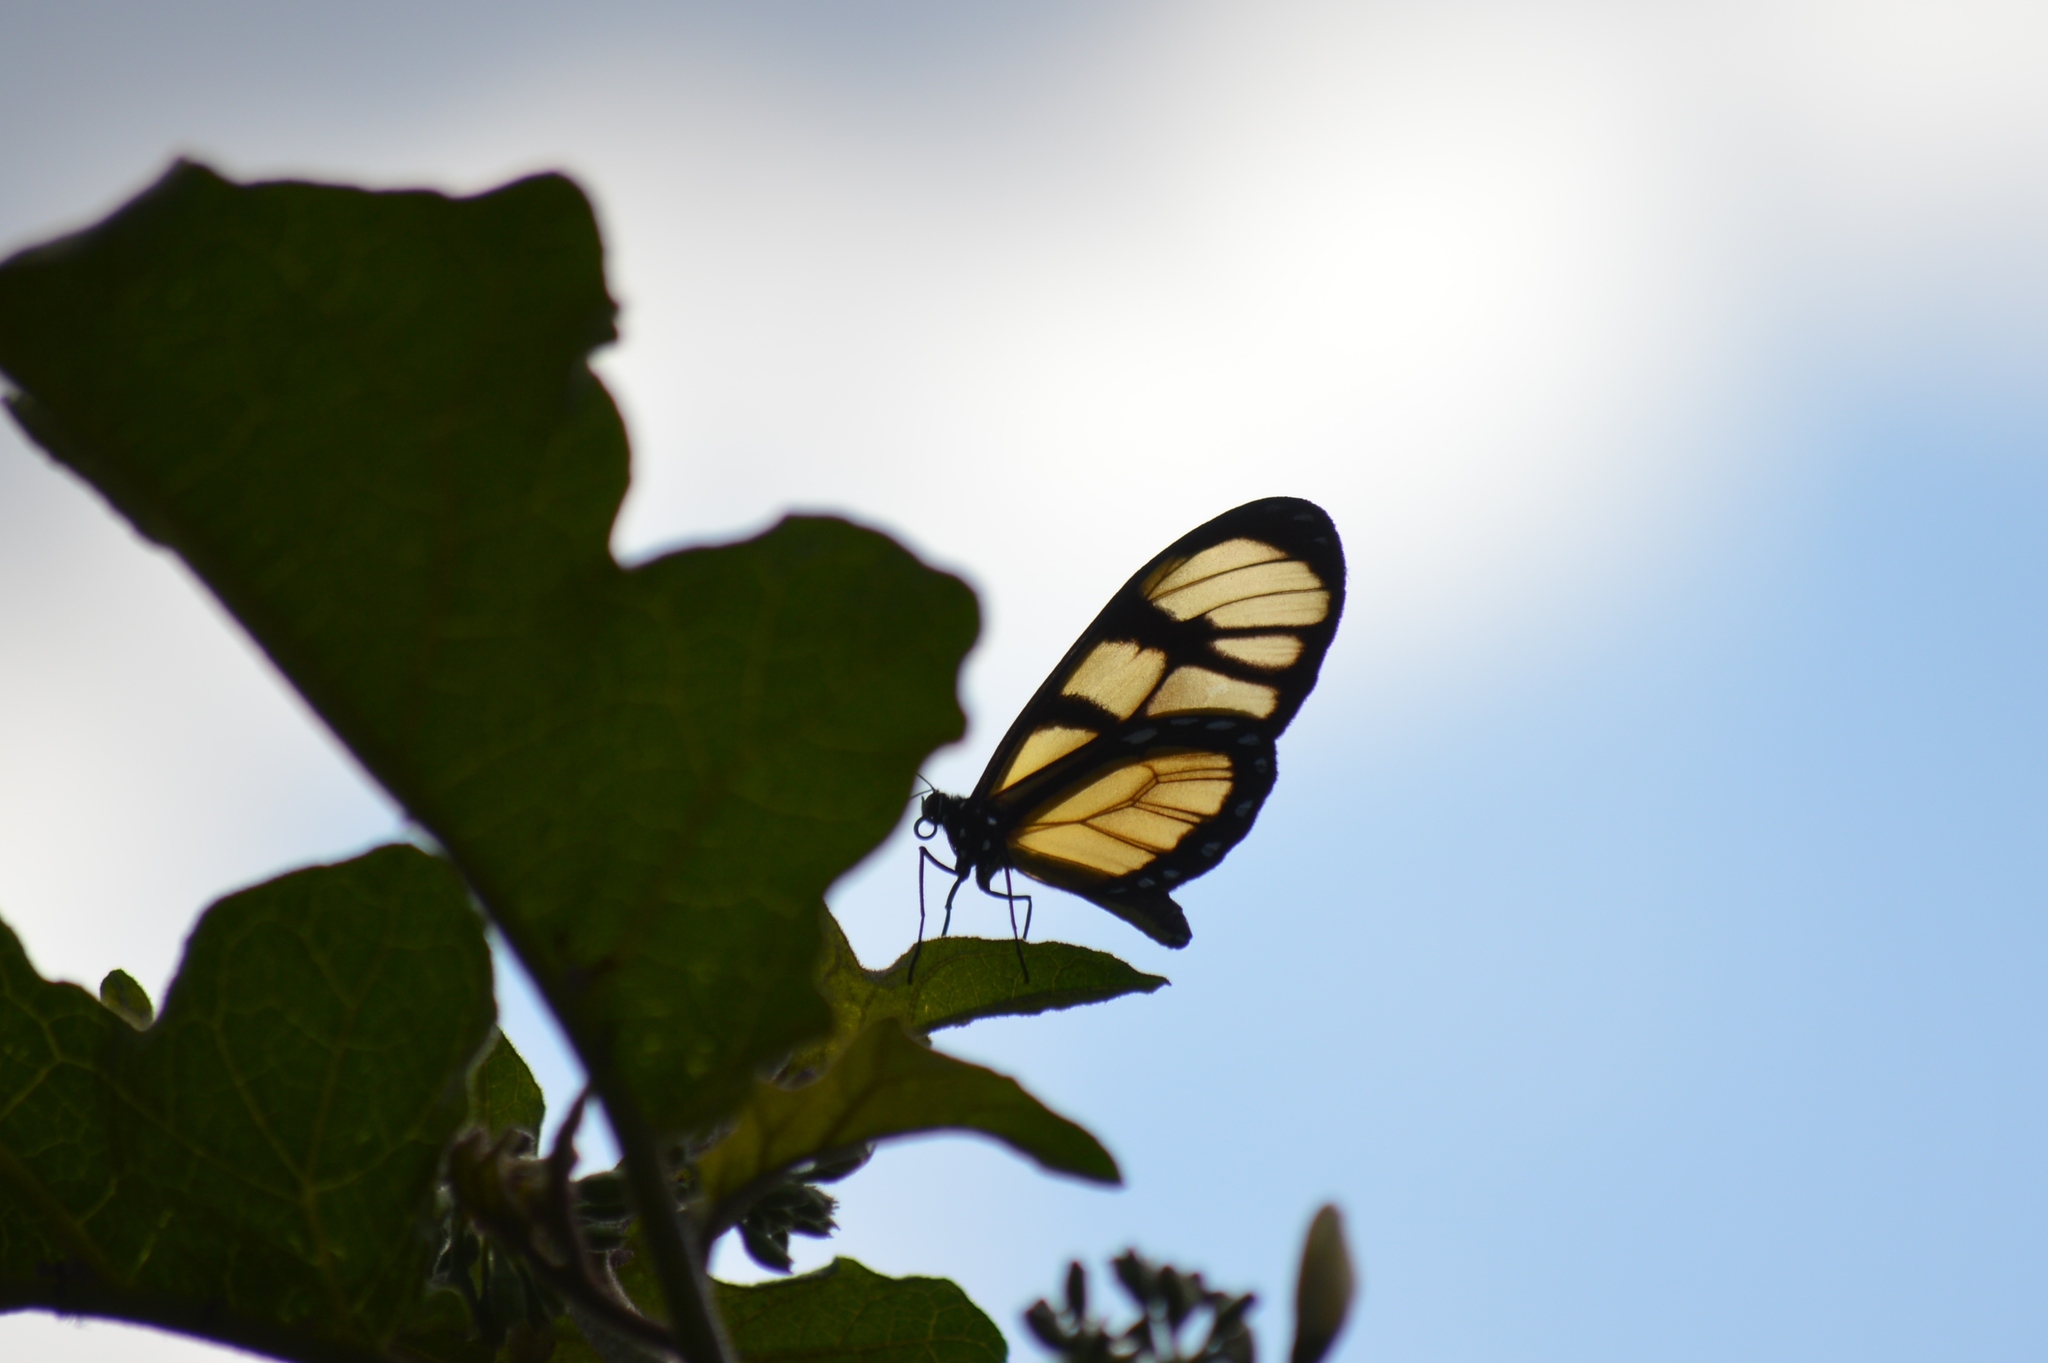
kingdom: Animalia
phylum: Arthropoda
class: Insecta
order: Lepidoptera
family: Nymphalidae
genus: Dircenna
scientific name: Dircenna dero
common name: Dero clearwing
